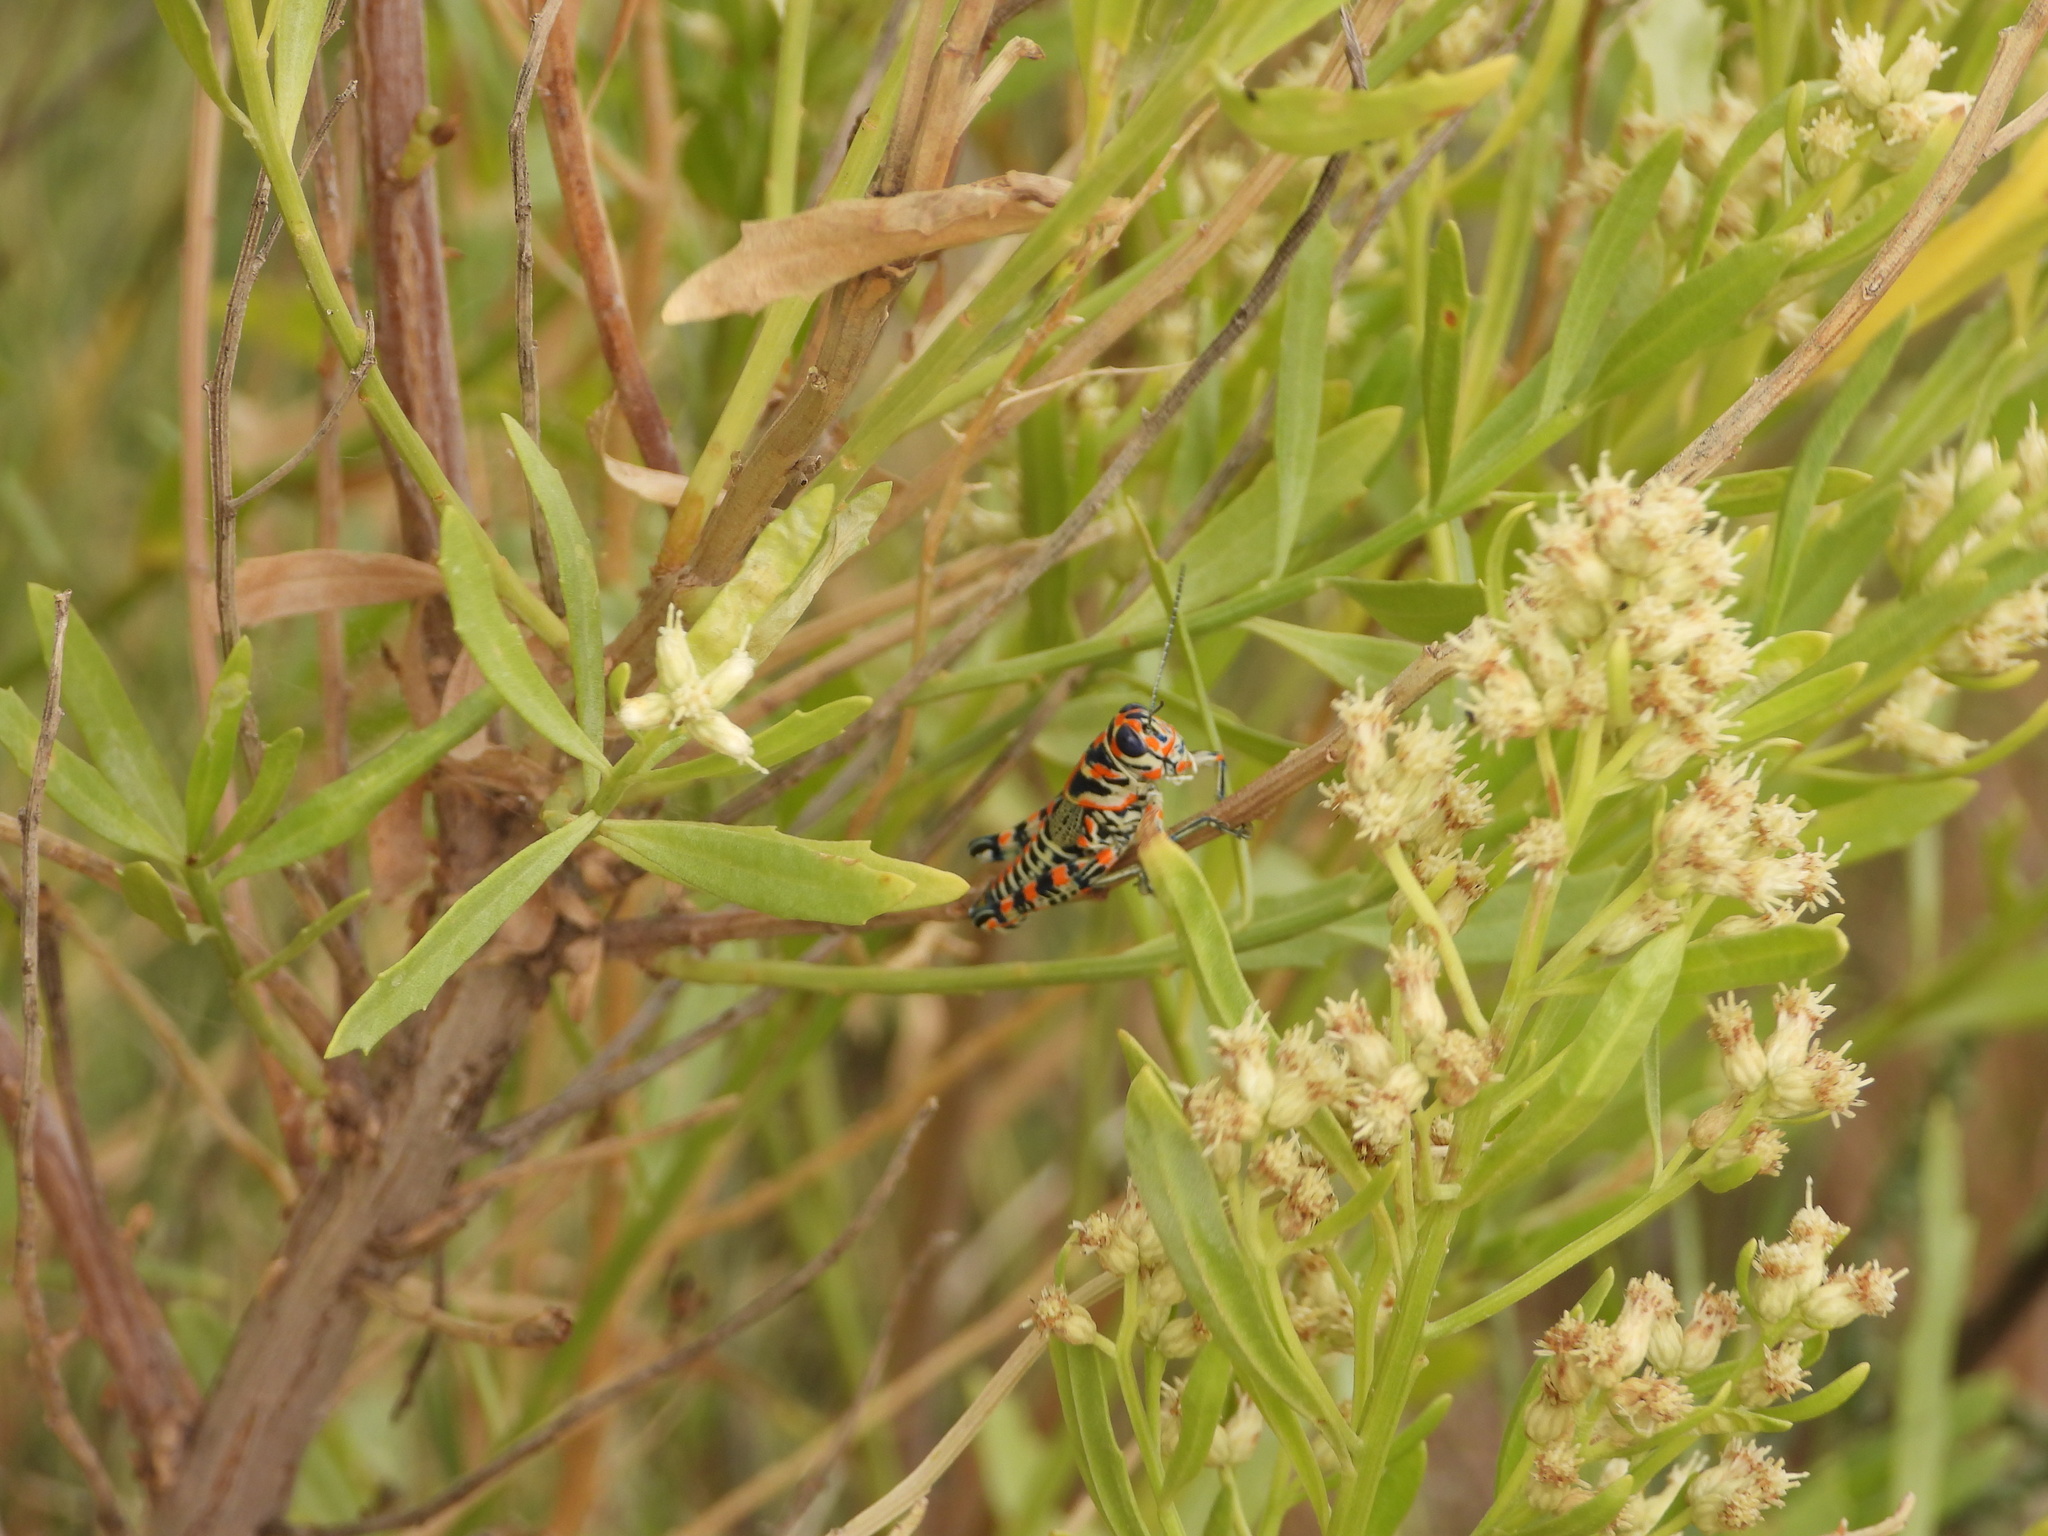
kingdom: Animalia
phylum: Arthropoda
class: Insecta
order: Orthoptera
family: Acrididae
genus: Dactylotum
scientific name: Dactylotum bicolor
